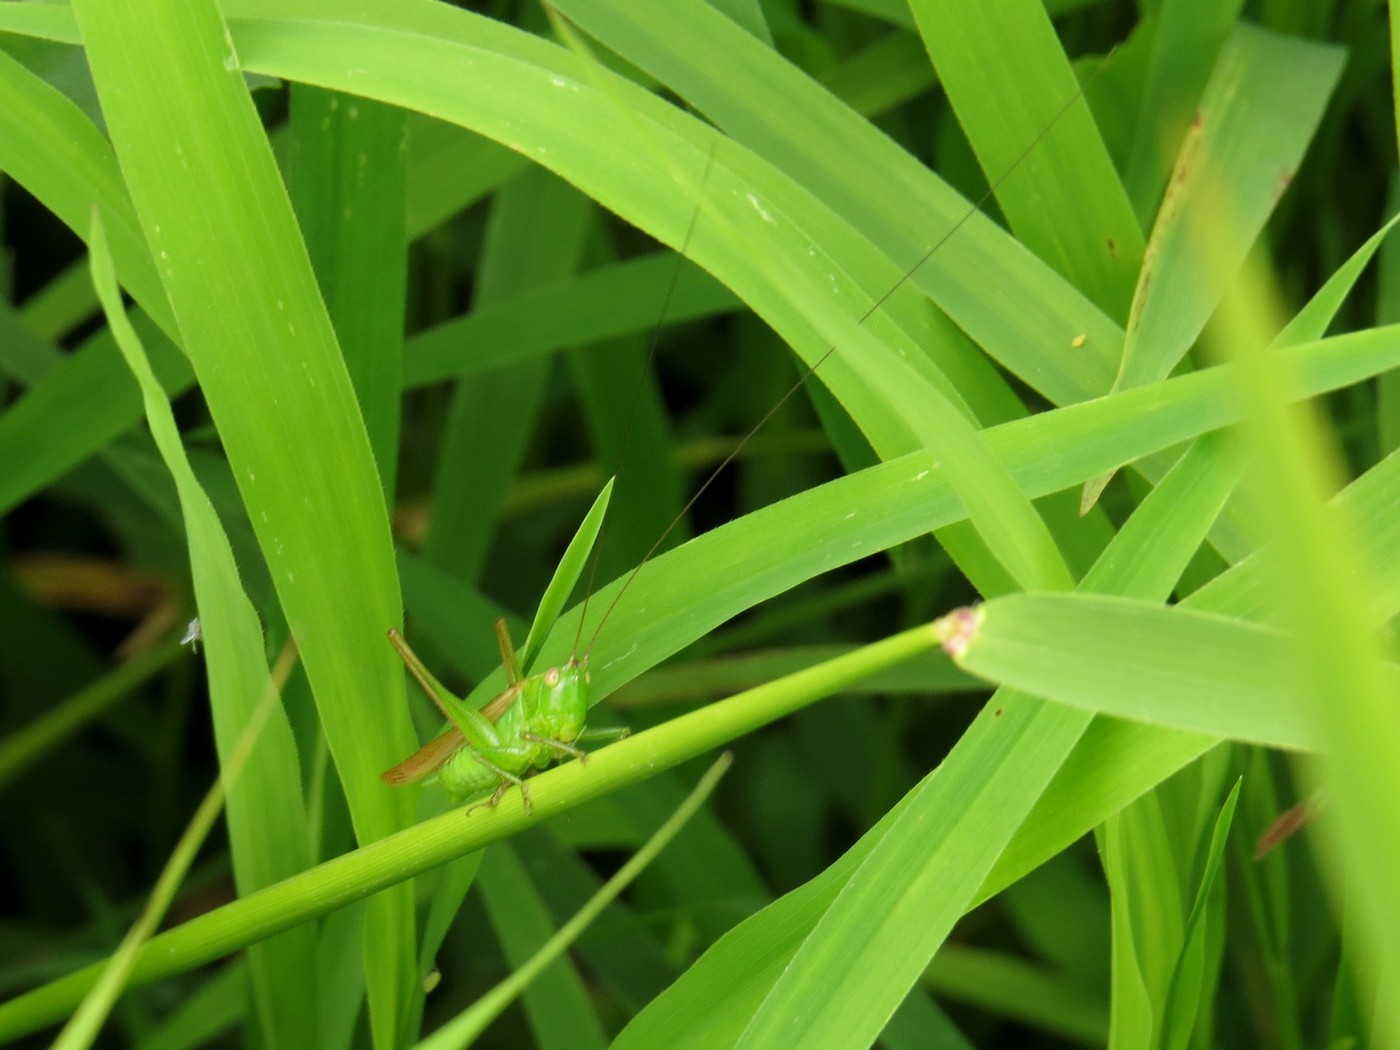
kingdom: Animalia
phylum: Arthropoda
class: Insecta
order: Orthoptera
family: Tettigoniidae
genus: Conocephalus
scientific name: Conocephalus fasciatus
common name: Slender meadow katydid
